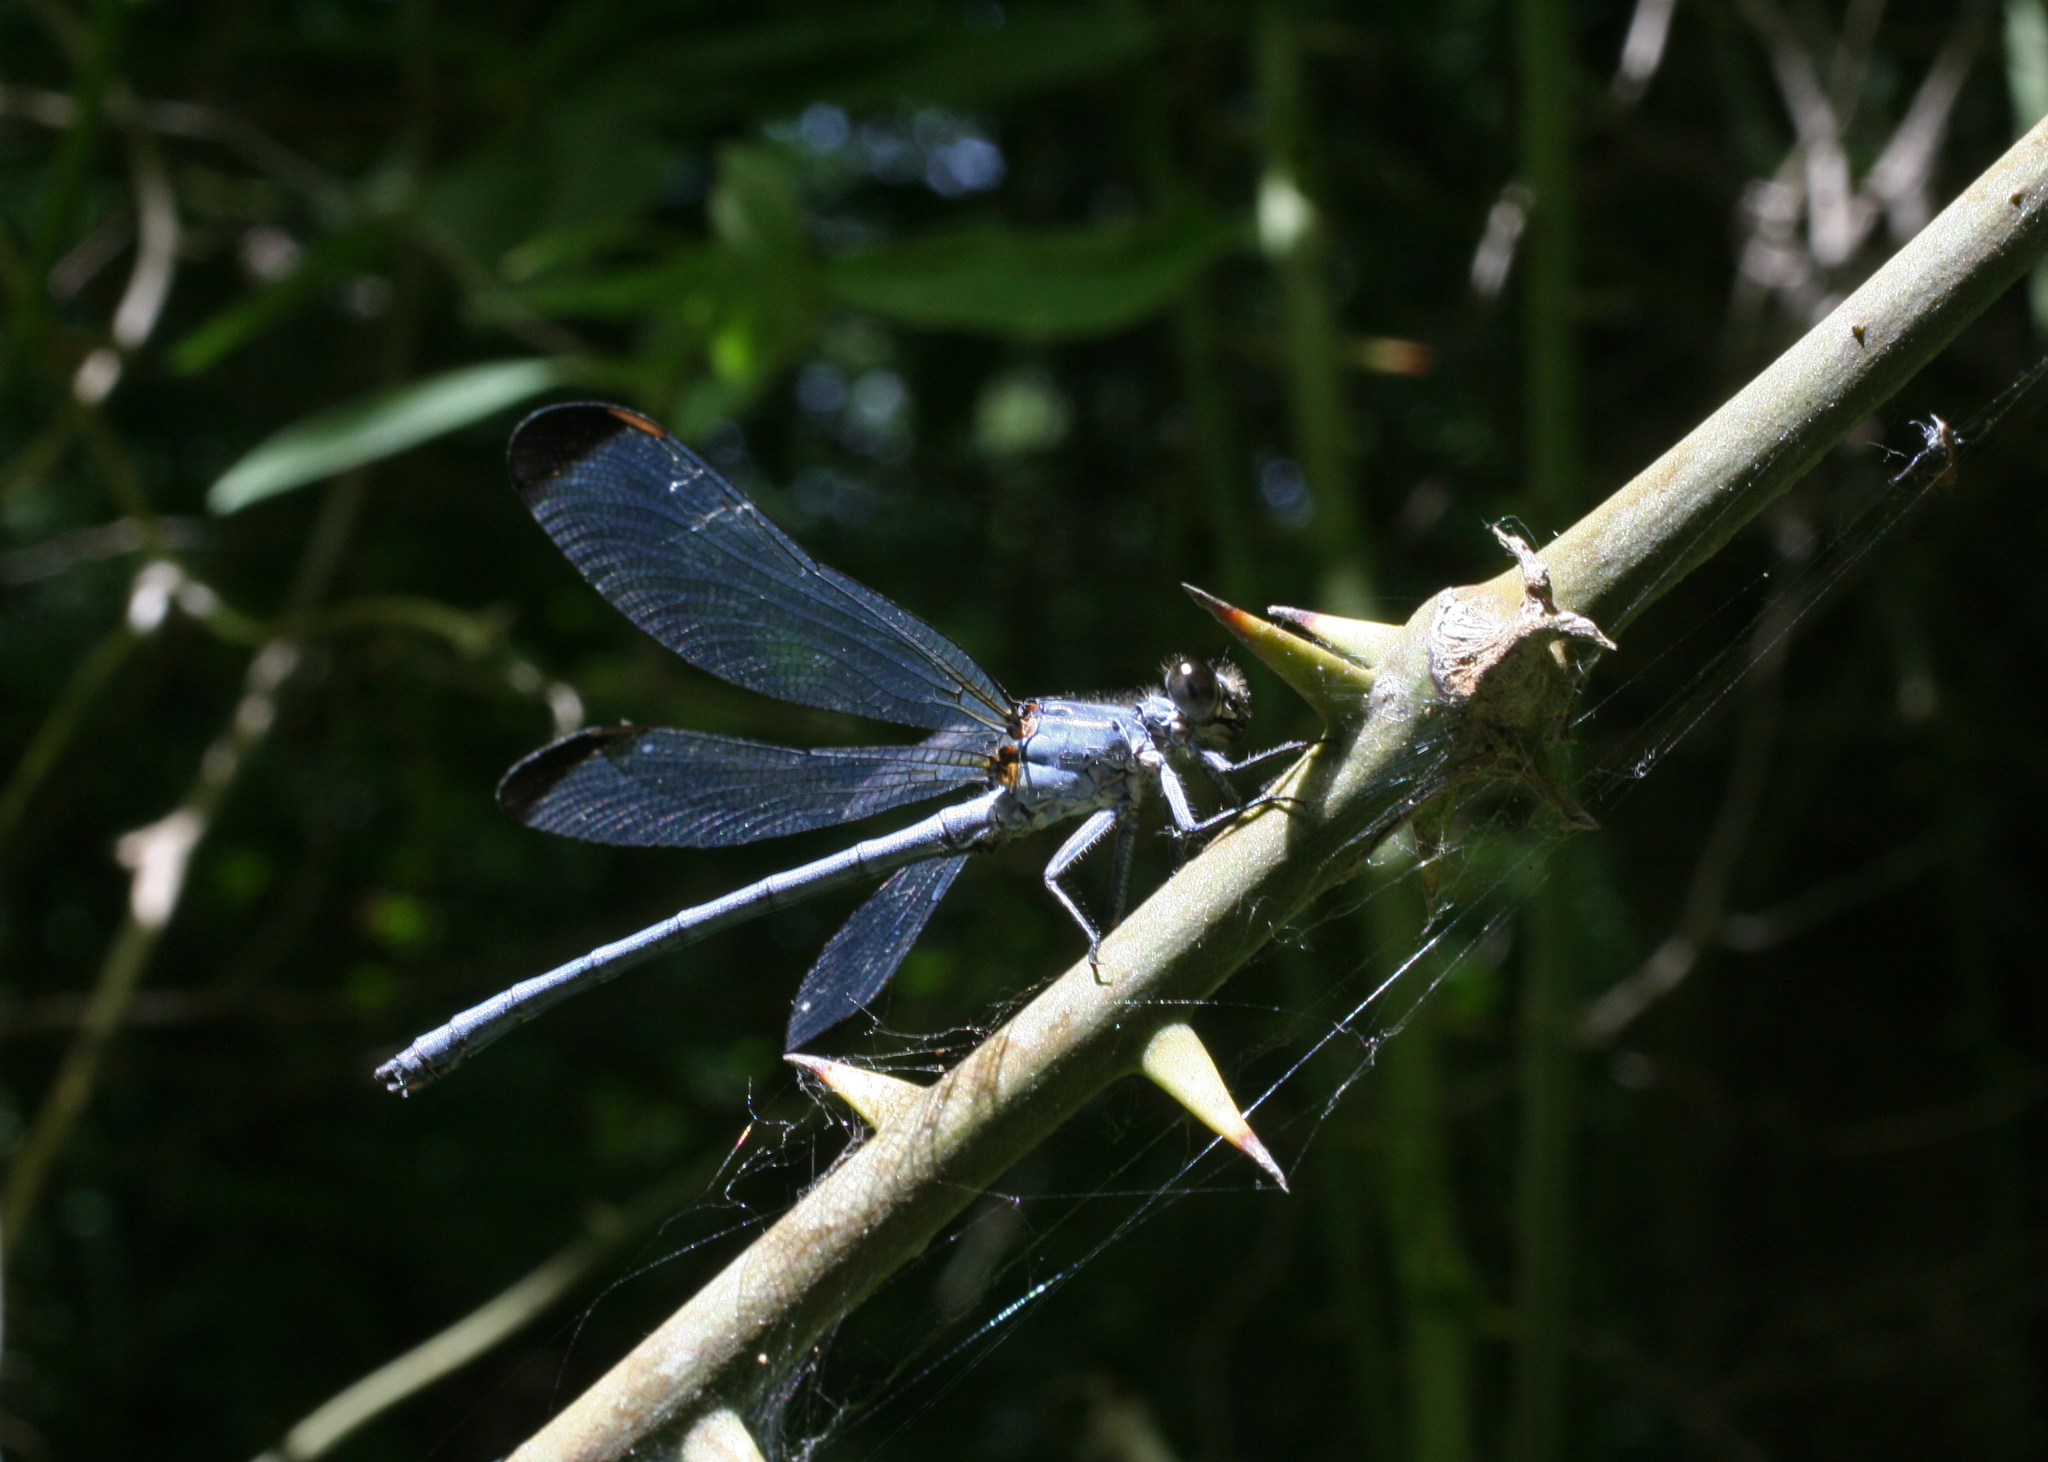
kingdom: Animalia
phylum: Arthropoda
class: Insecta
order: Odonata
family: Euphaeidae
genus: Epallage
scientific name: Epallage fatime
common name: Odalisque
